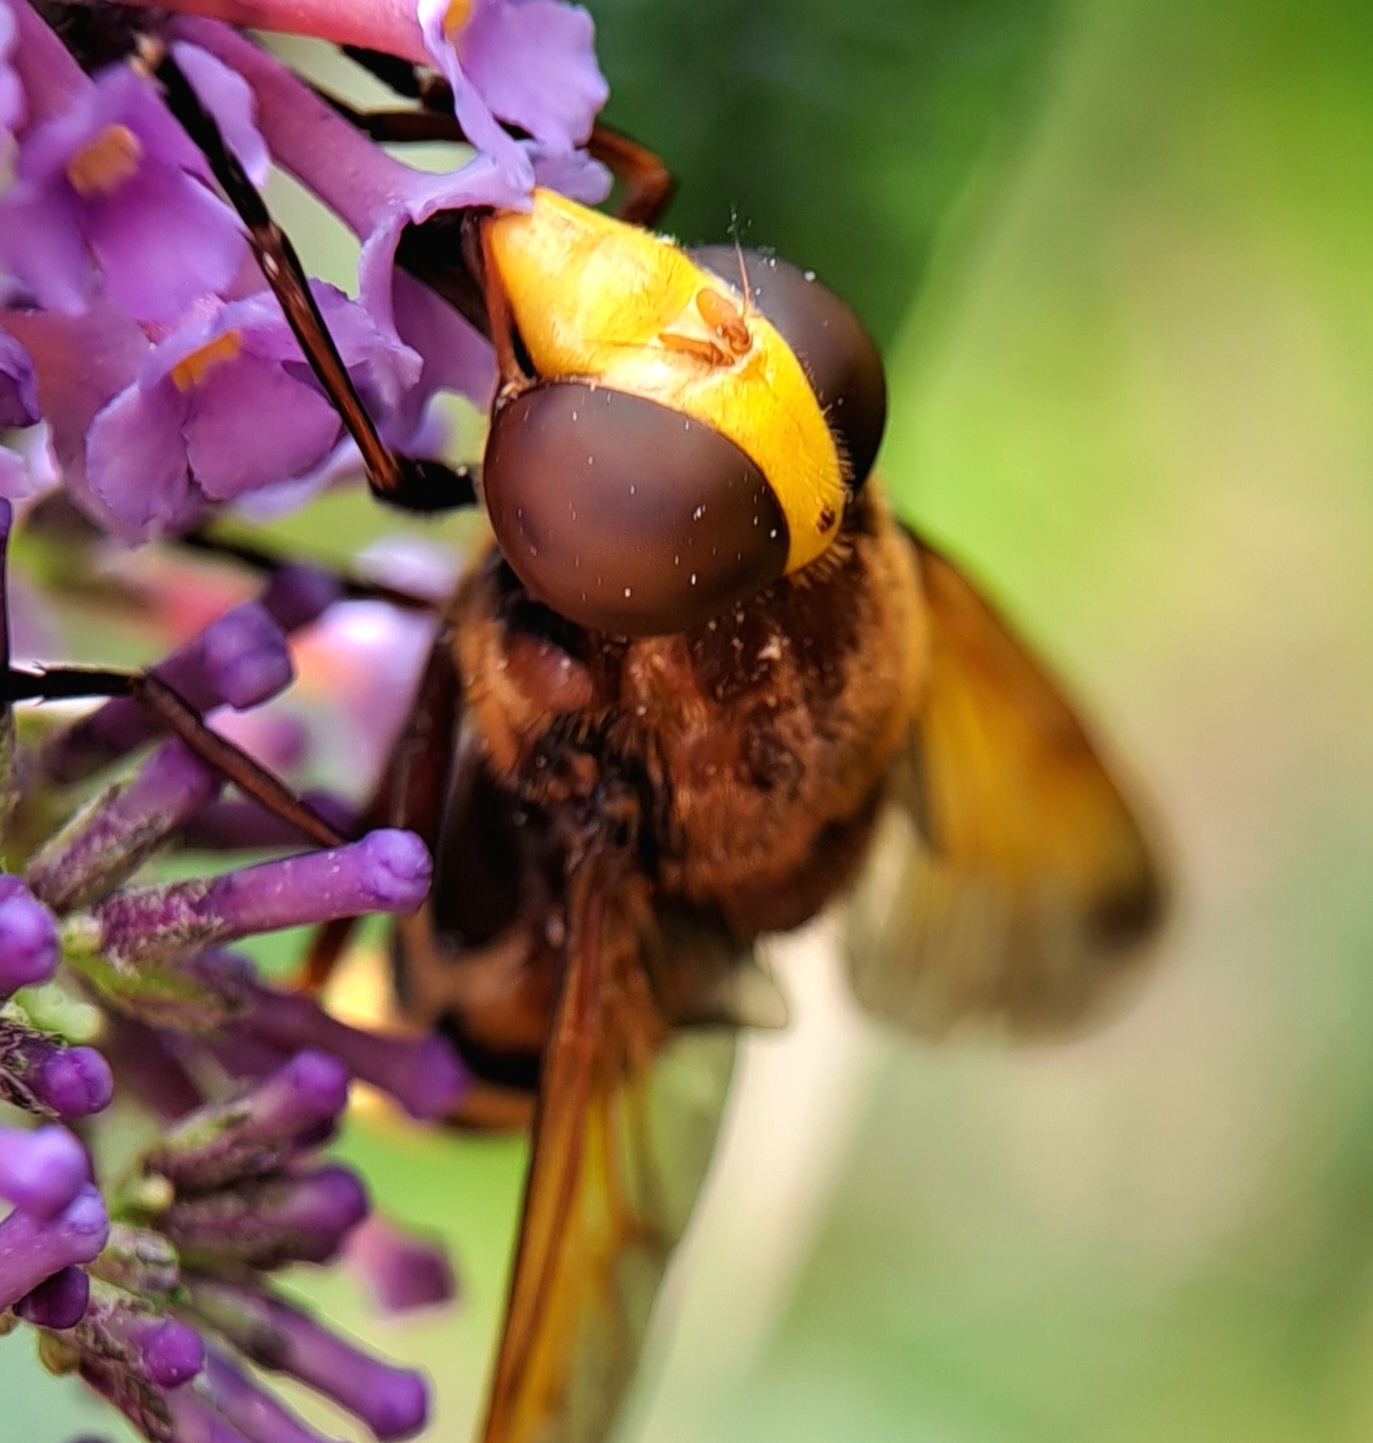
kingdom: Animalia
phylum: Arthropoda
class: Insecta
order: Diptera
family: Syrphidae
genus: Volucella
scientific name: Volucella zonaria
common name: Hornet hoverfly
